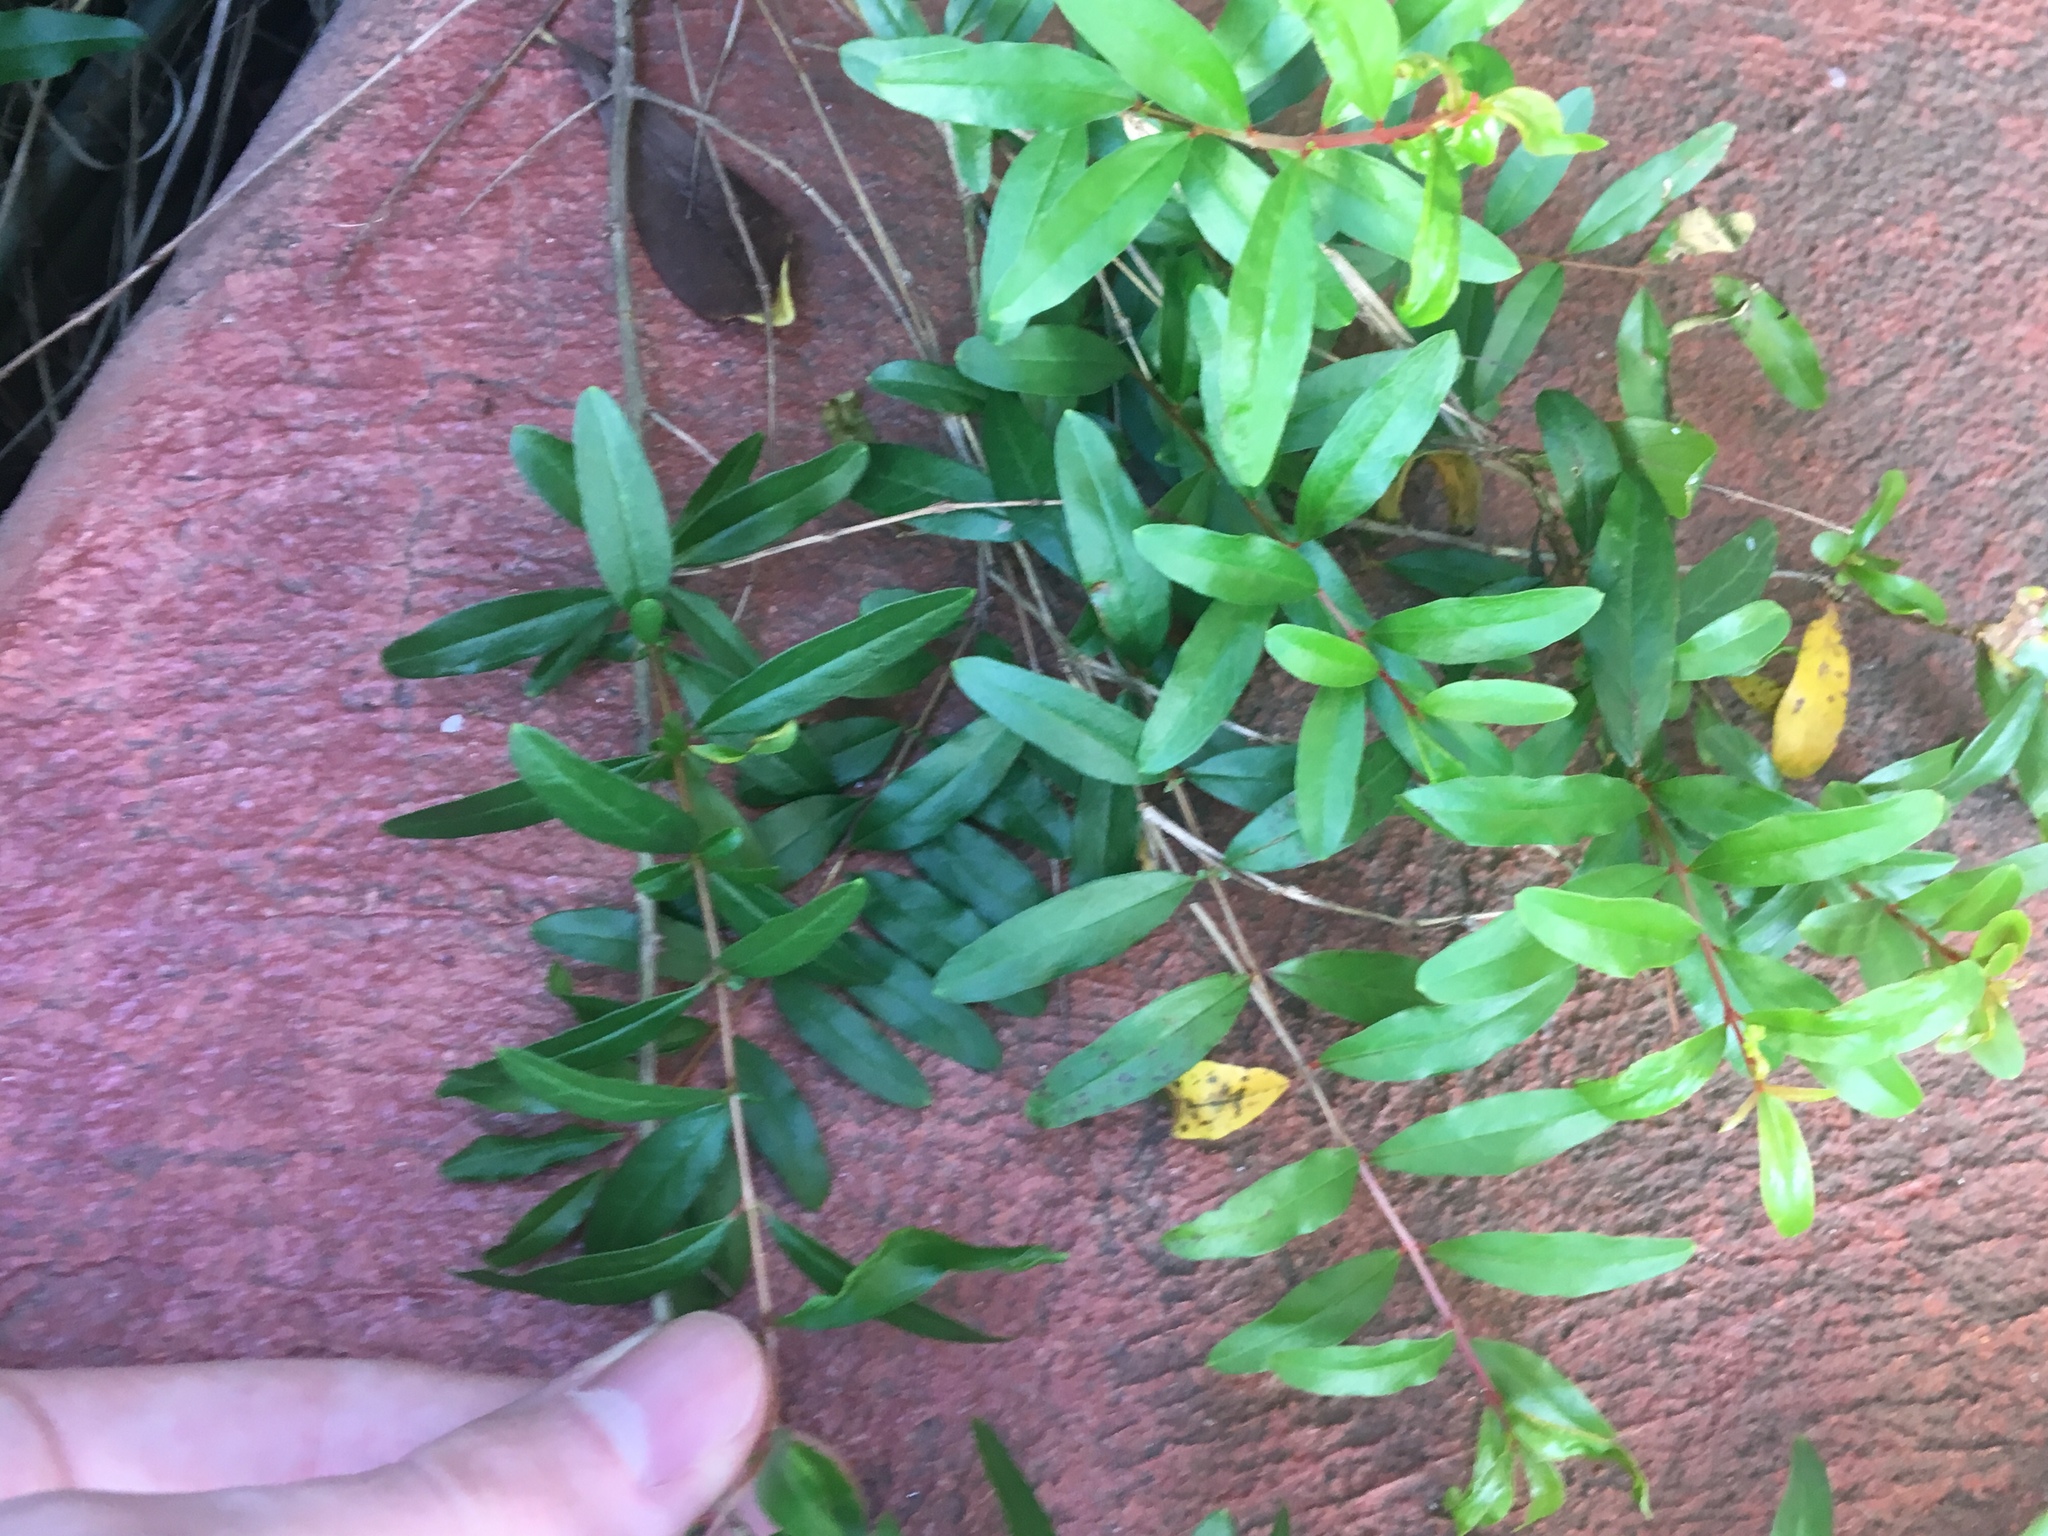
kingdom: Plantae
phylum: Tracheophyta
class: Magnoliopsida
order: Myrtales
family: Lythraceae
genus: Punica
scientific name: Punica granatum
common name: Pomegranate
